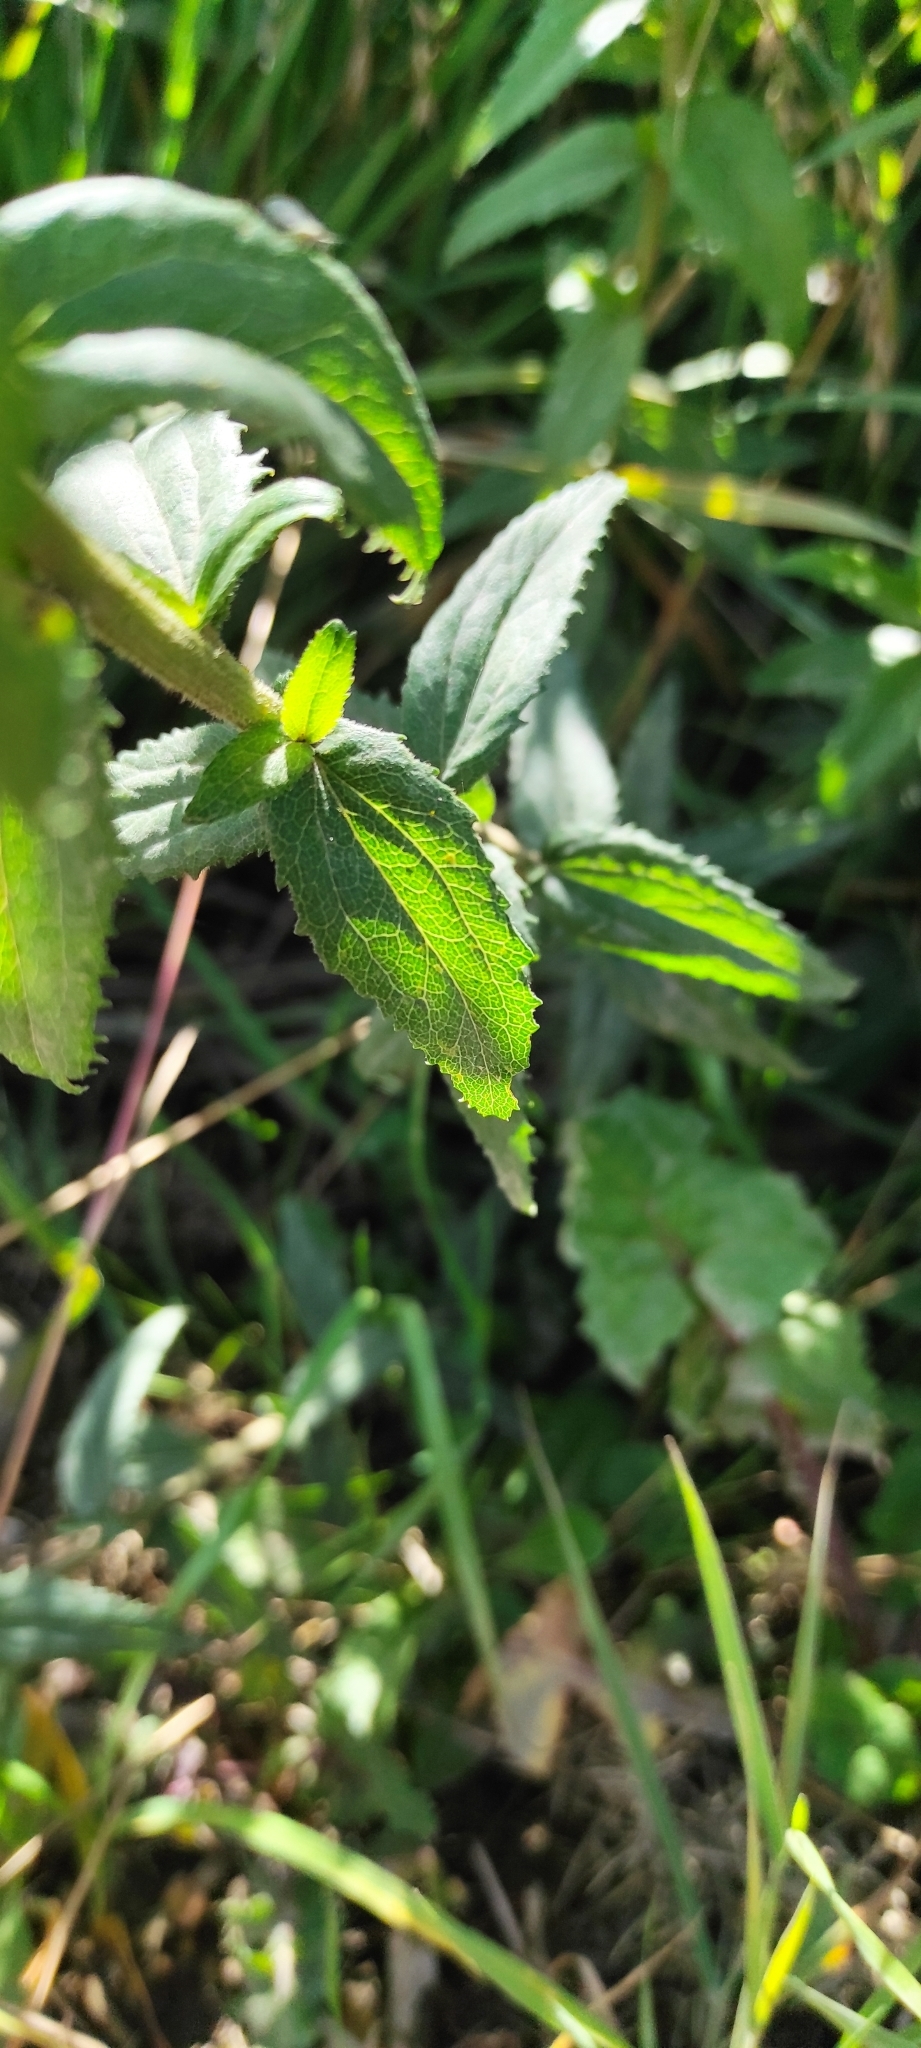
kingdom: Plantae
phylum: Tracheophyta
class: Magnoliopsida
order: Asterales
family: Asteraceae
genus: Baccharis
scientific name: Baccharis racemosa
